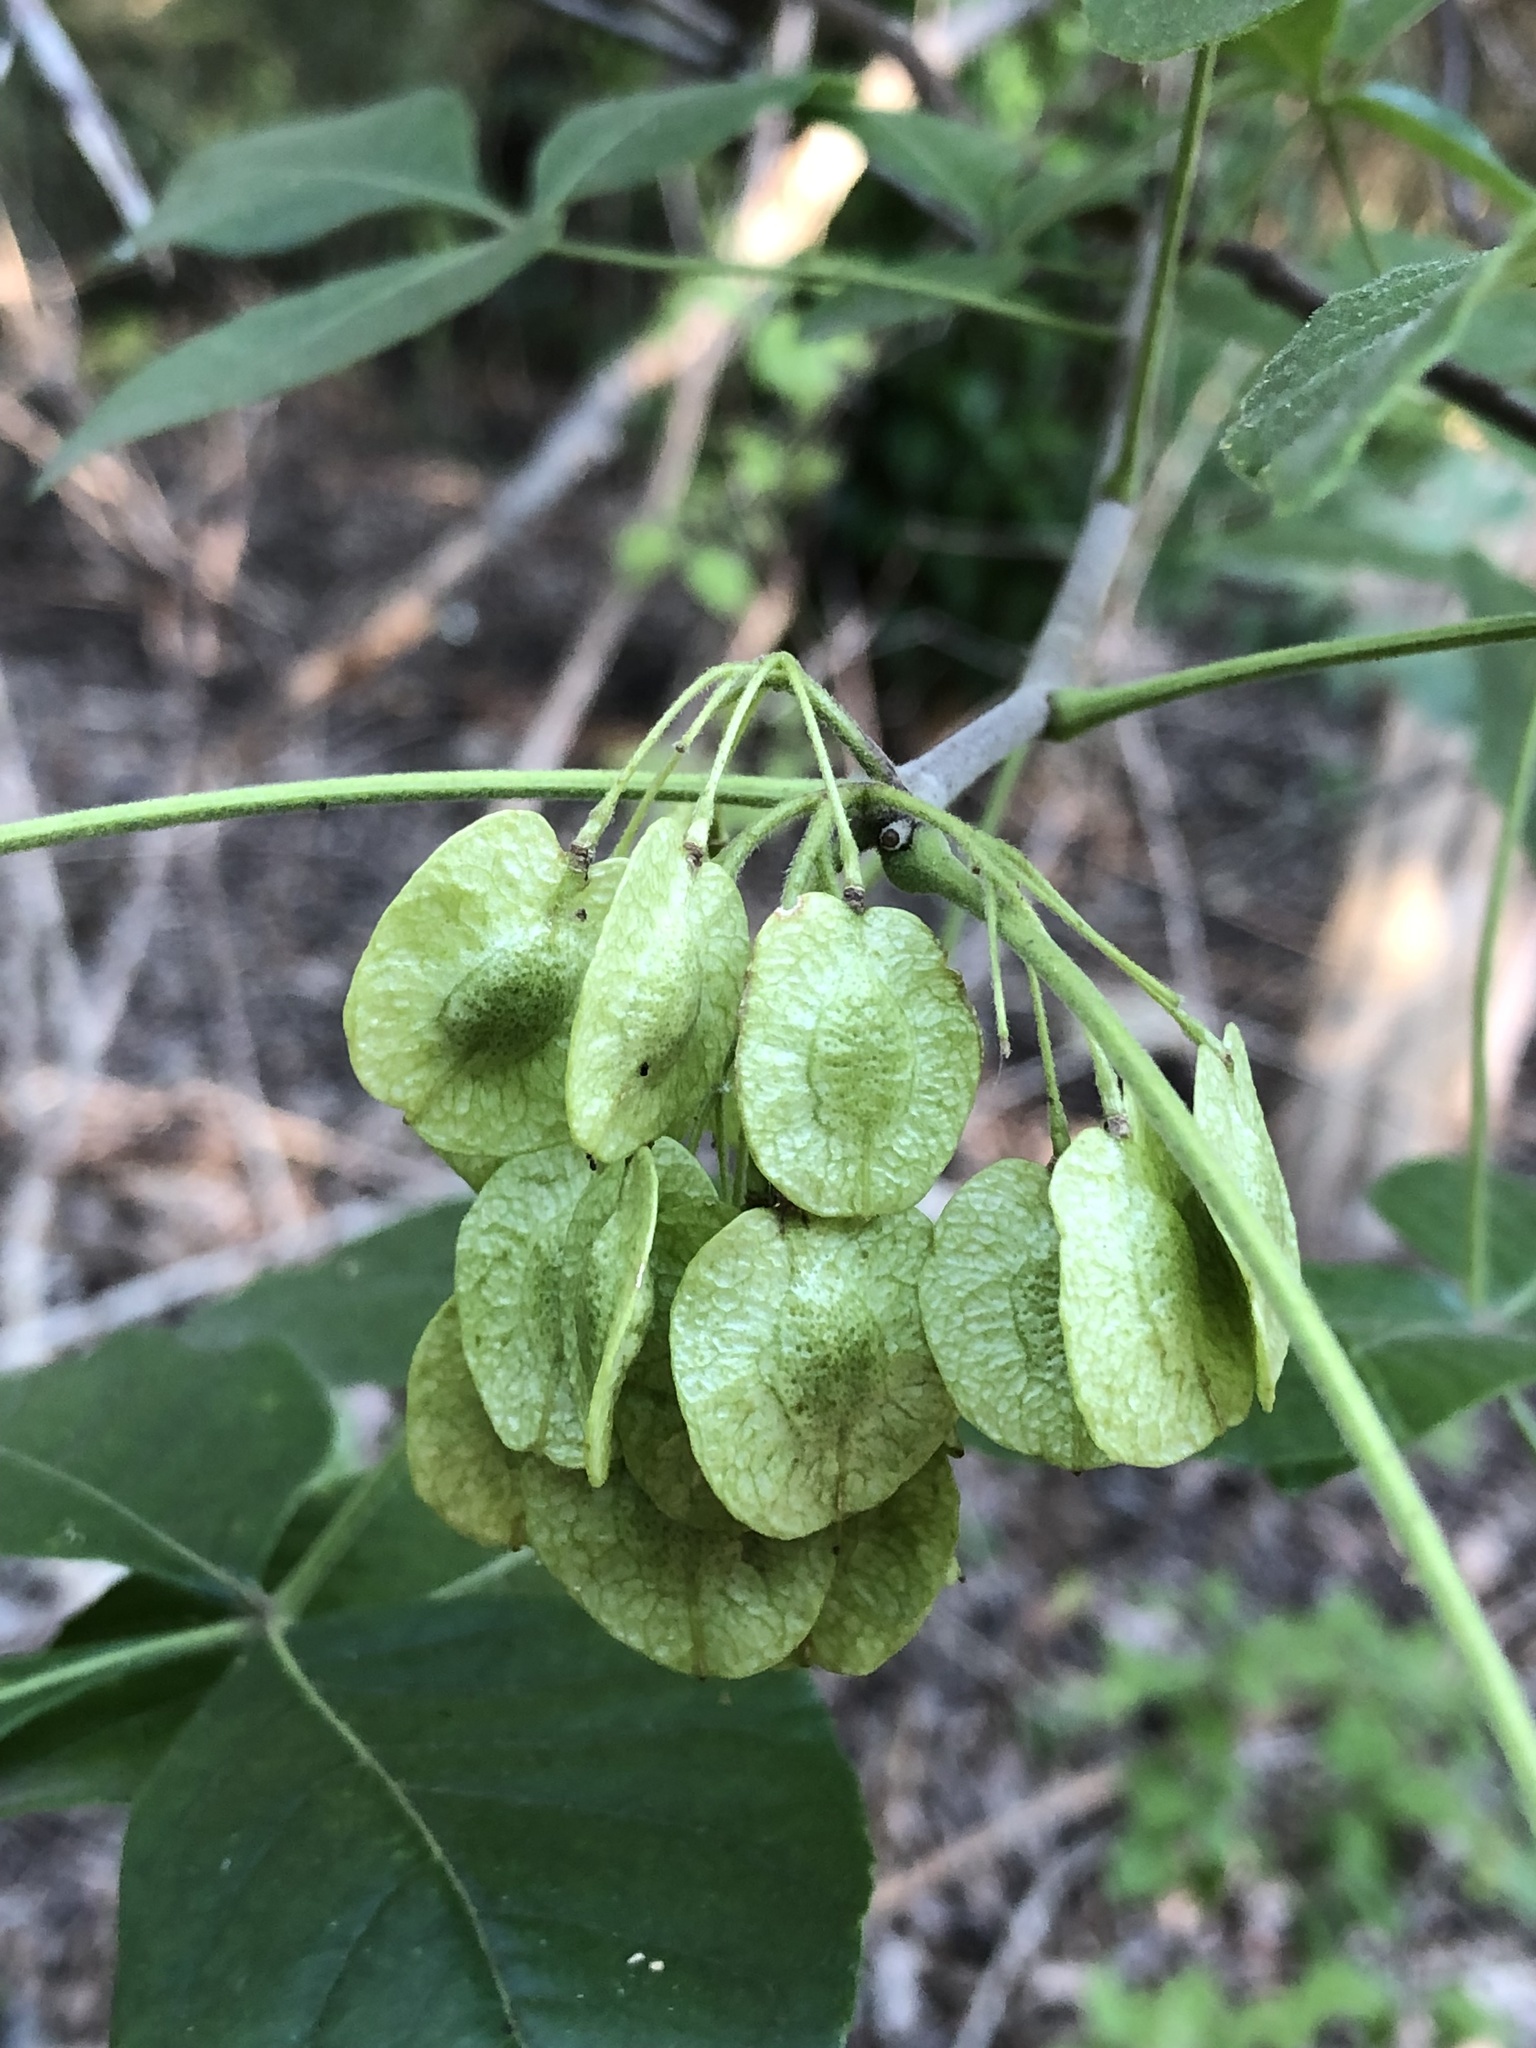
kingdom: Plantae
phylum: Tracheophyta
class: Magnoliopsida
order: Sapindales
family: Rutaceae
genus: Ptelea
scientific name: Ptelea trifoliata
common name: Common hop-tree
